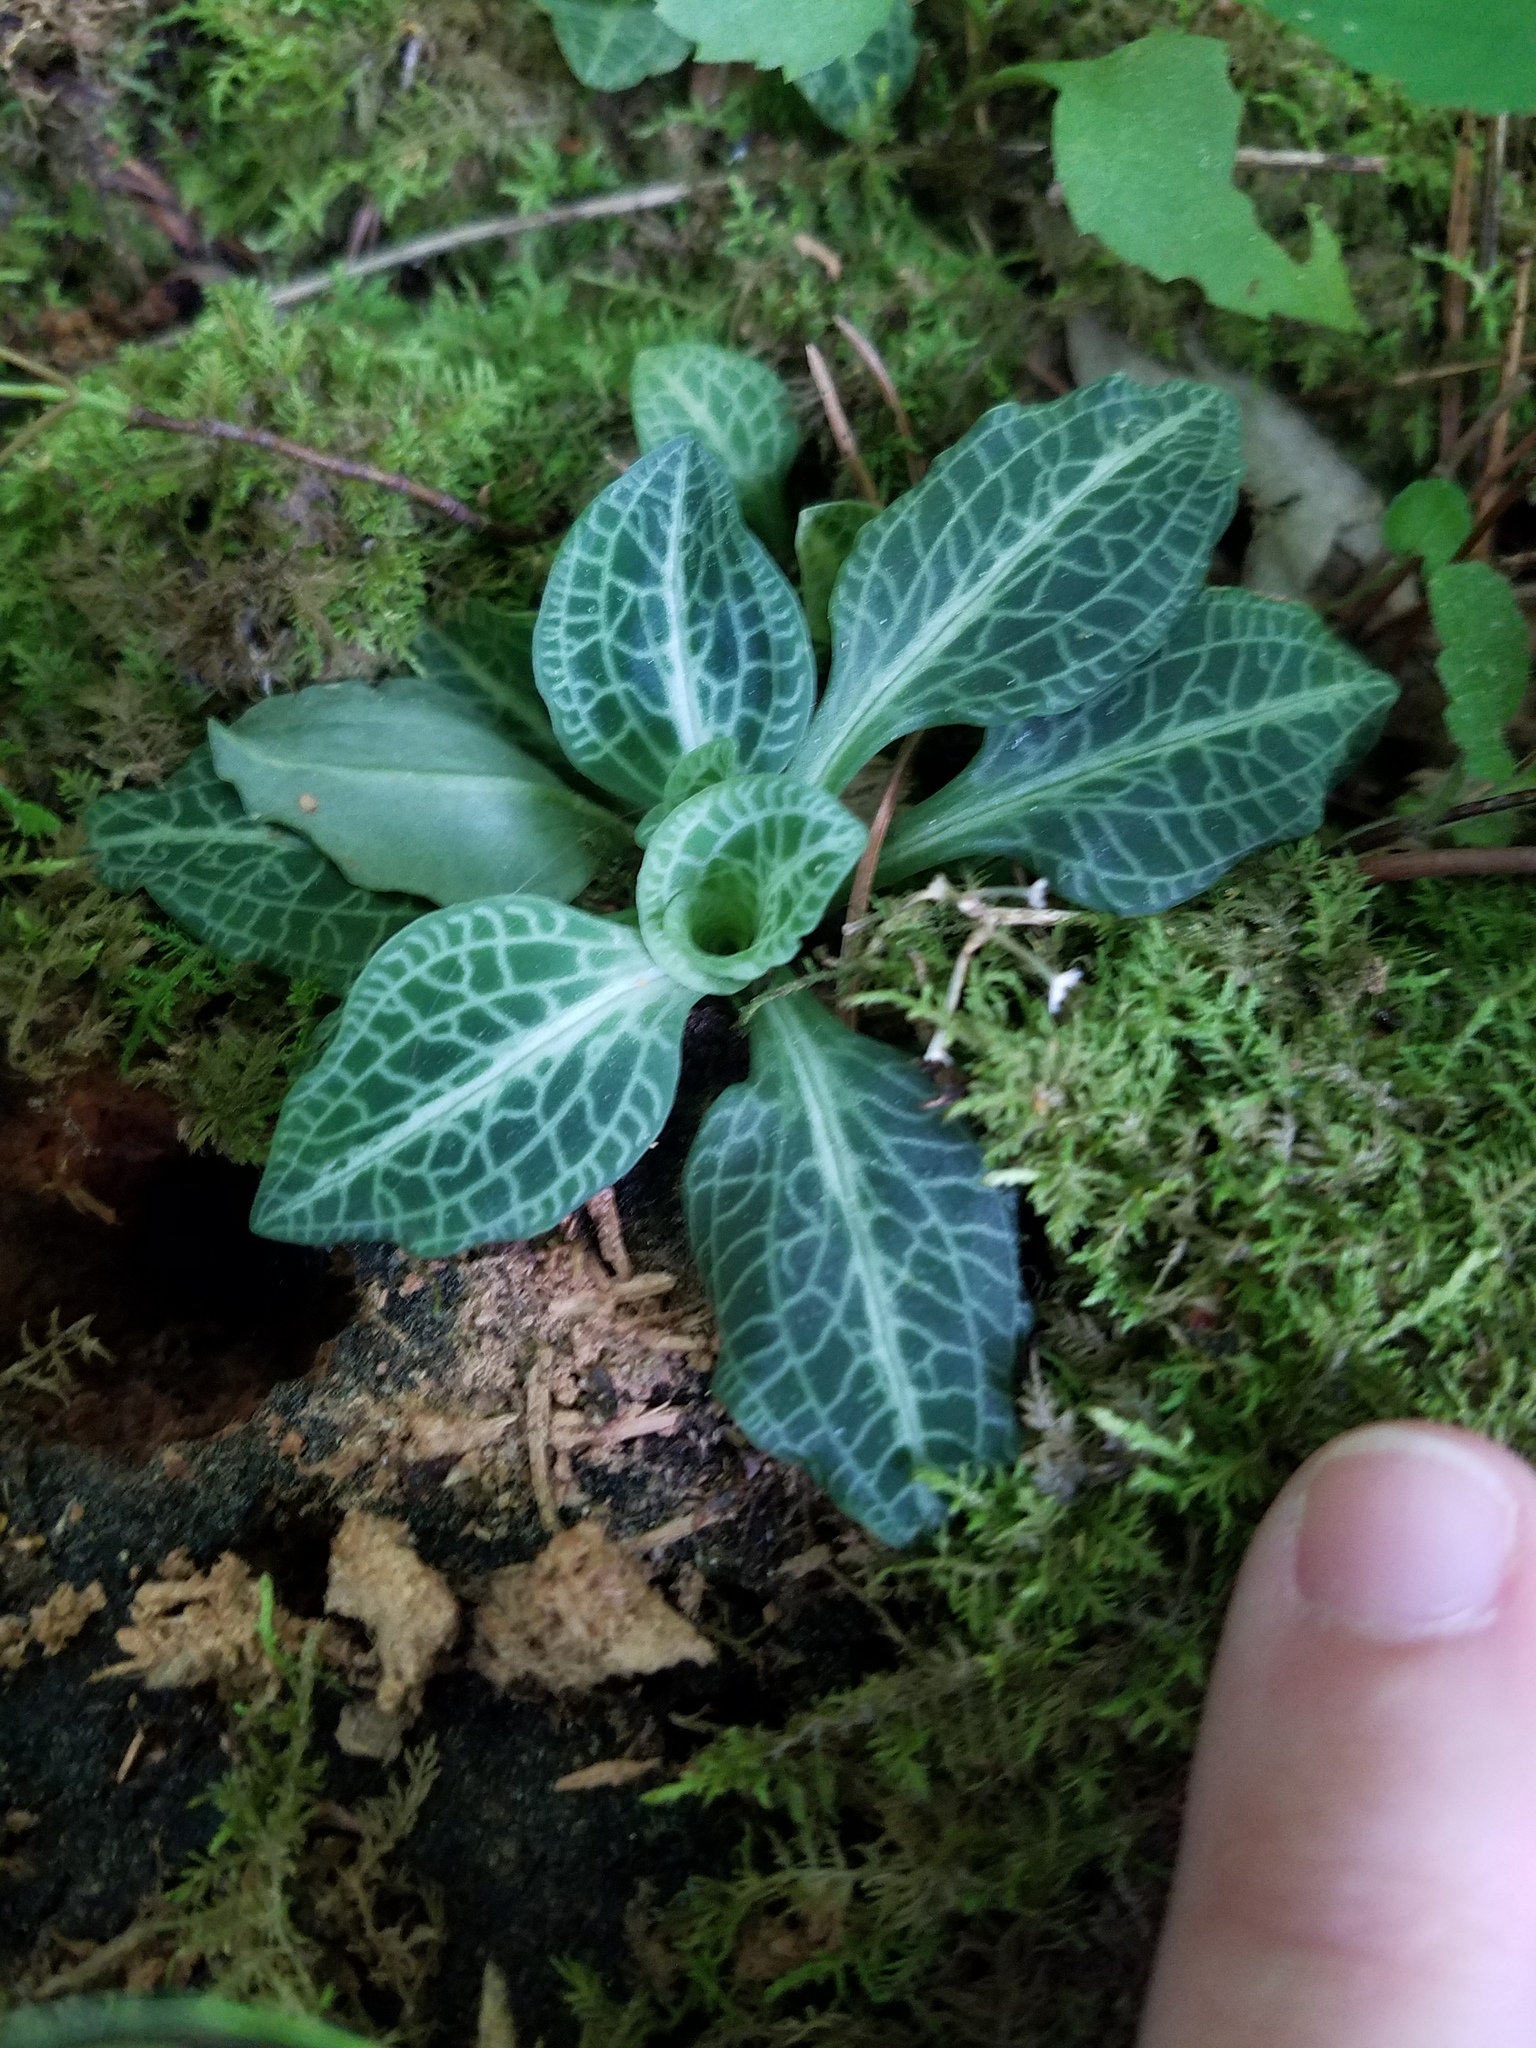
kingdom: Plantae
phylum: Tracheophyta
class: Liliopsida
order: Asparagales
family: Orchidaceae
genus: Goodyera
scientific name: Goodyera pubescens
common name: Downy rattlesnake-plantain
